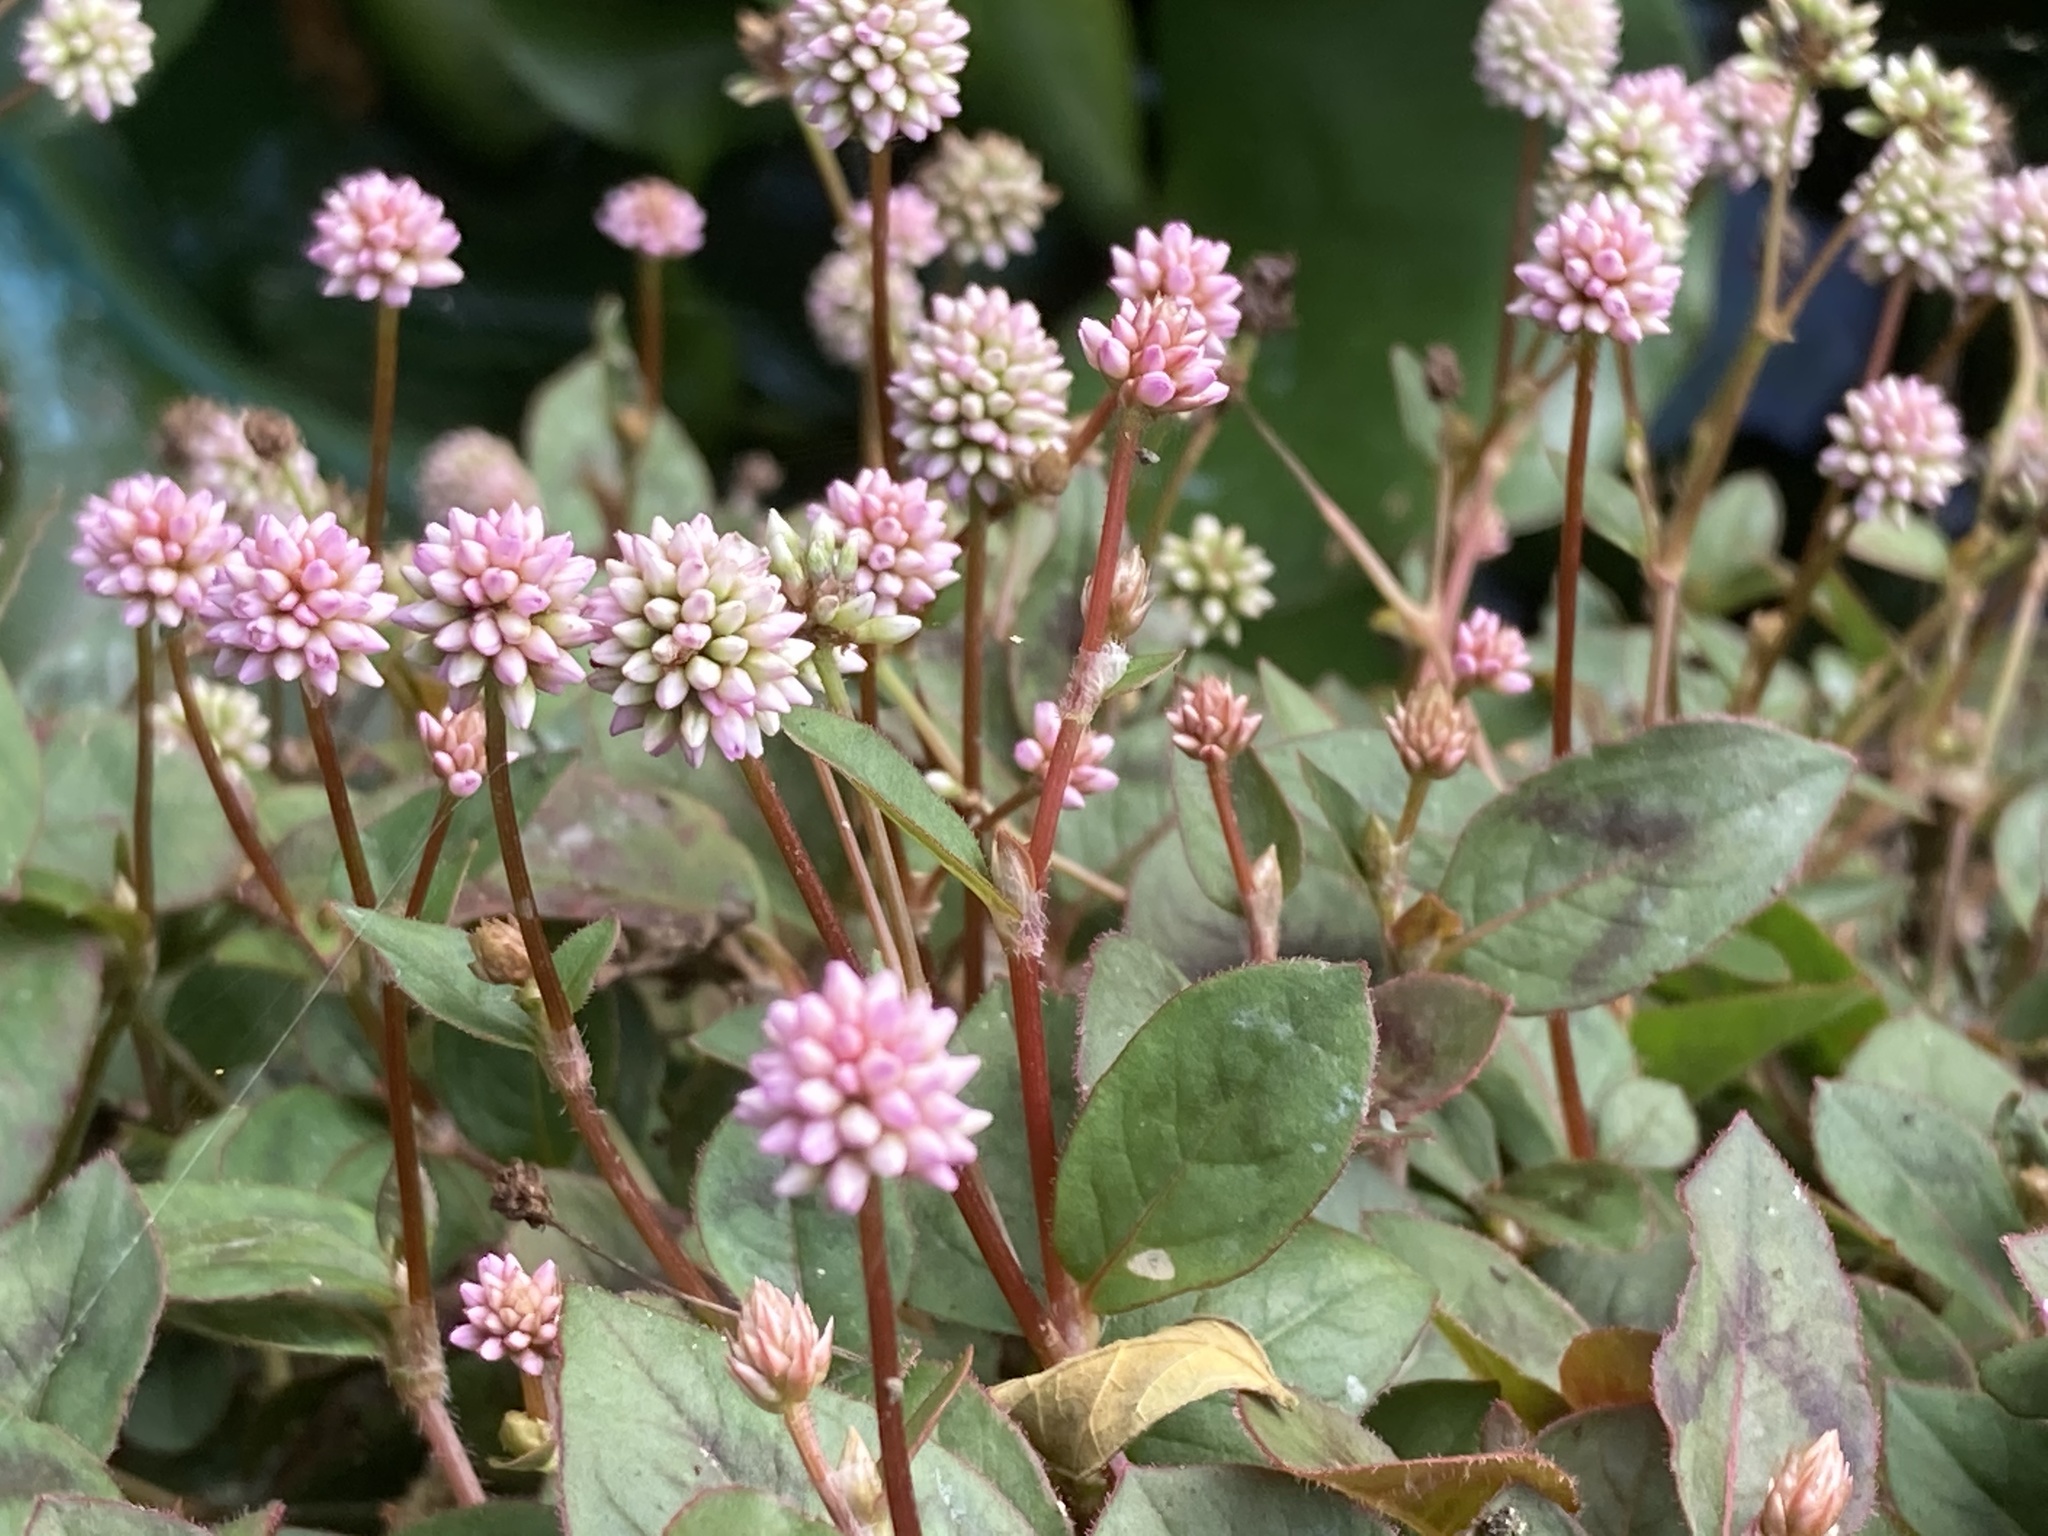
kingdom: Plantae
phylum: Tracheophyta
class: Magnoliopsida
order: Caryophyllales
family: Polygonaceae
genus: Persicaria
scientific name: Persicaria capitata
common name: Pinkhead smartweed
